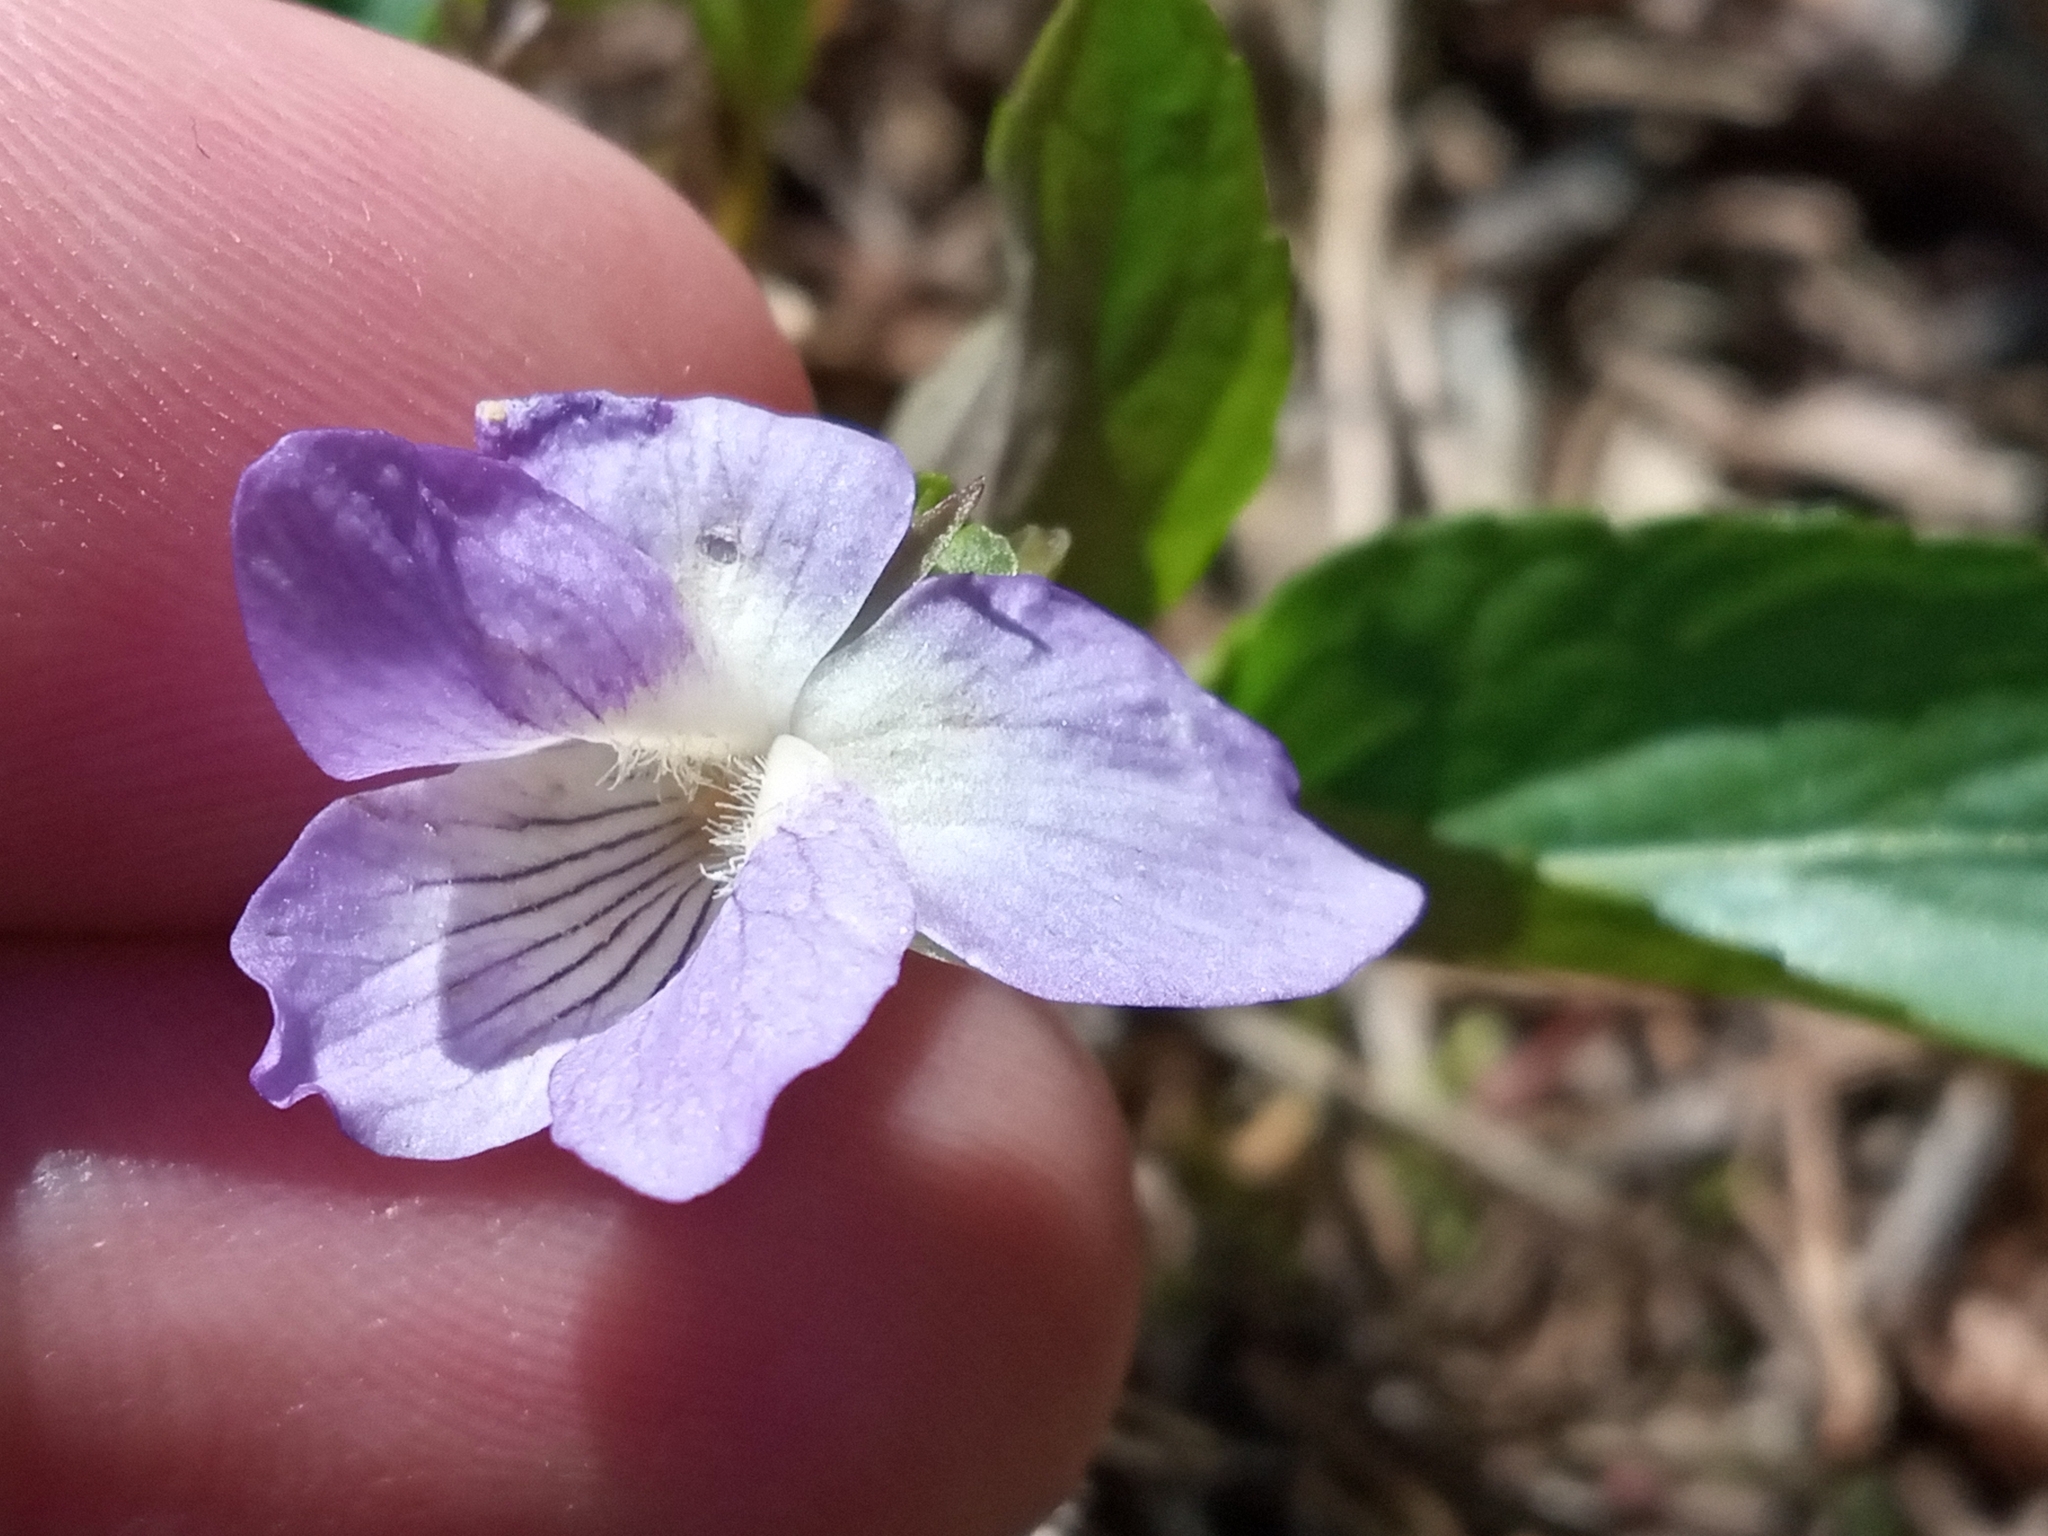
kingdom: Plantae
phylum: Tracheophyta
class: Magnoliopsida
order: Malpighiales
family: Violaceae
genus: Viola
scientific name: Viola canina
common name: Heath dog-violet
